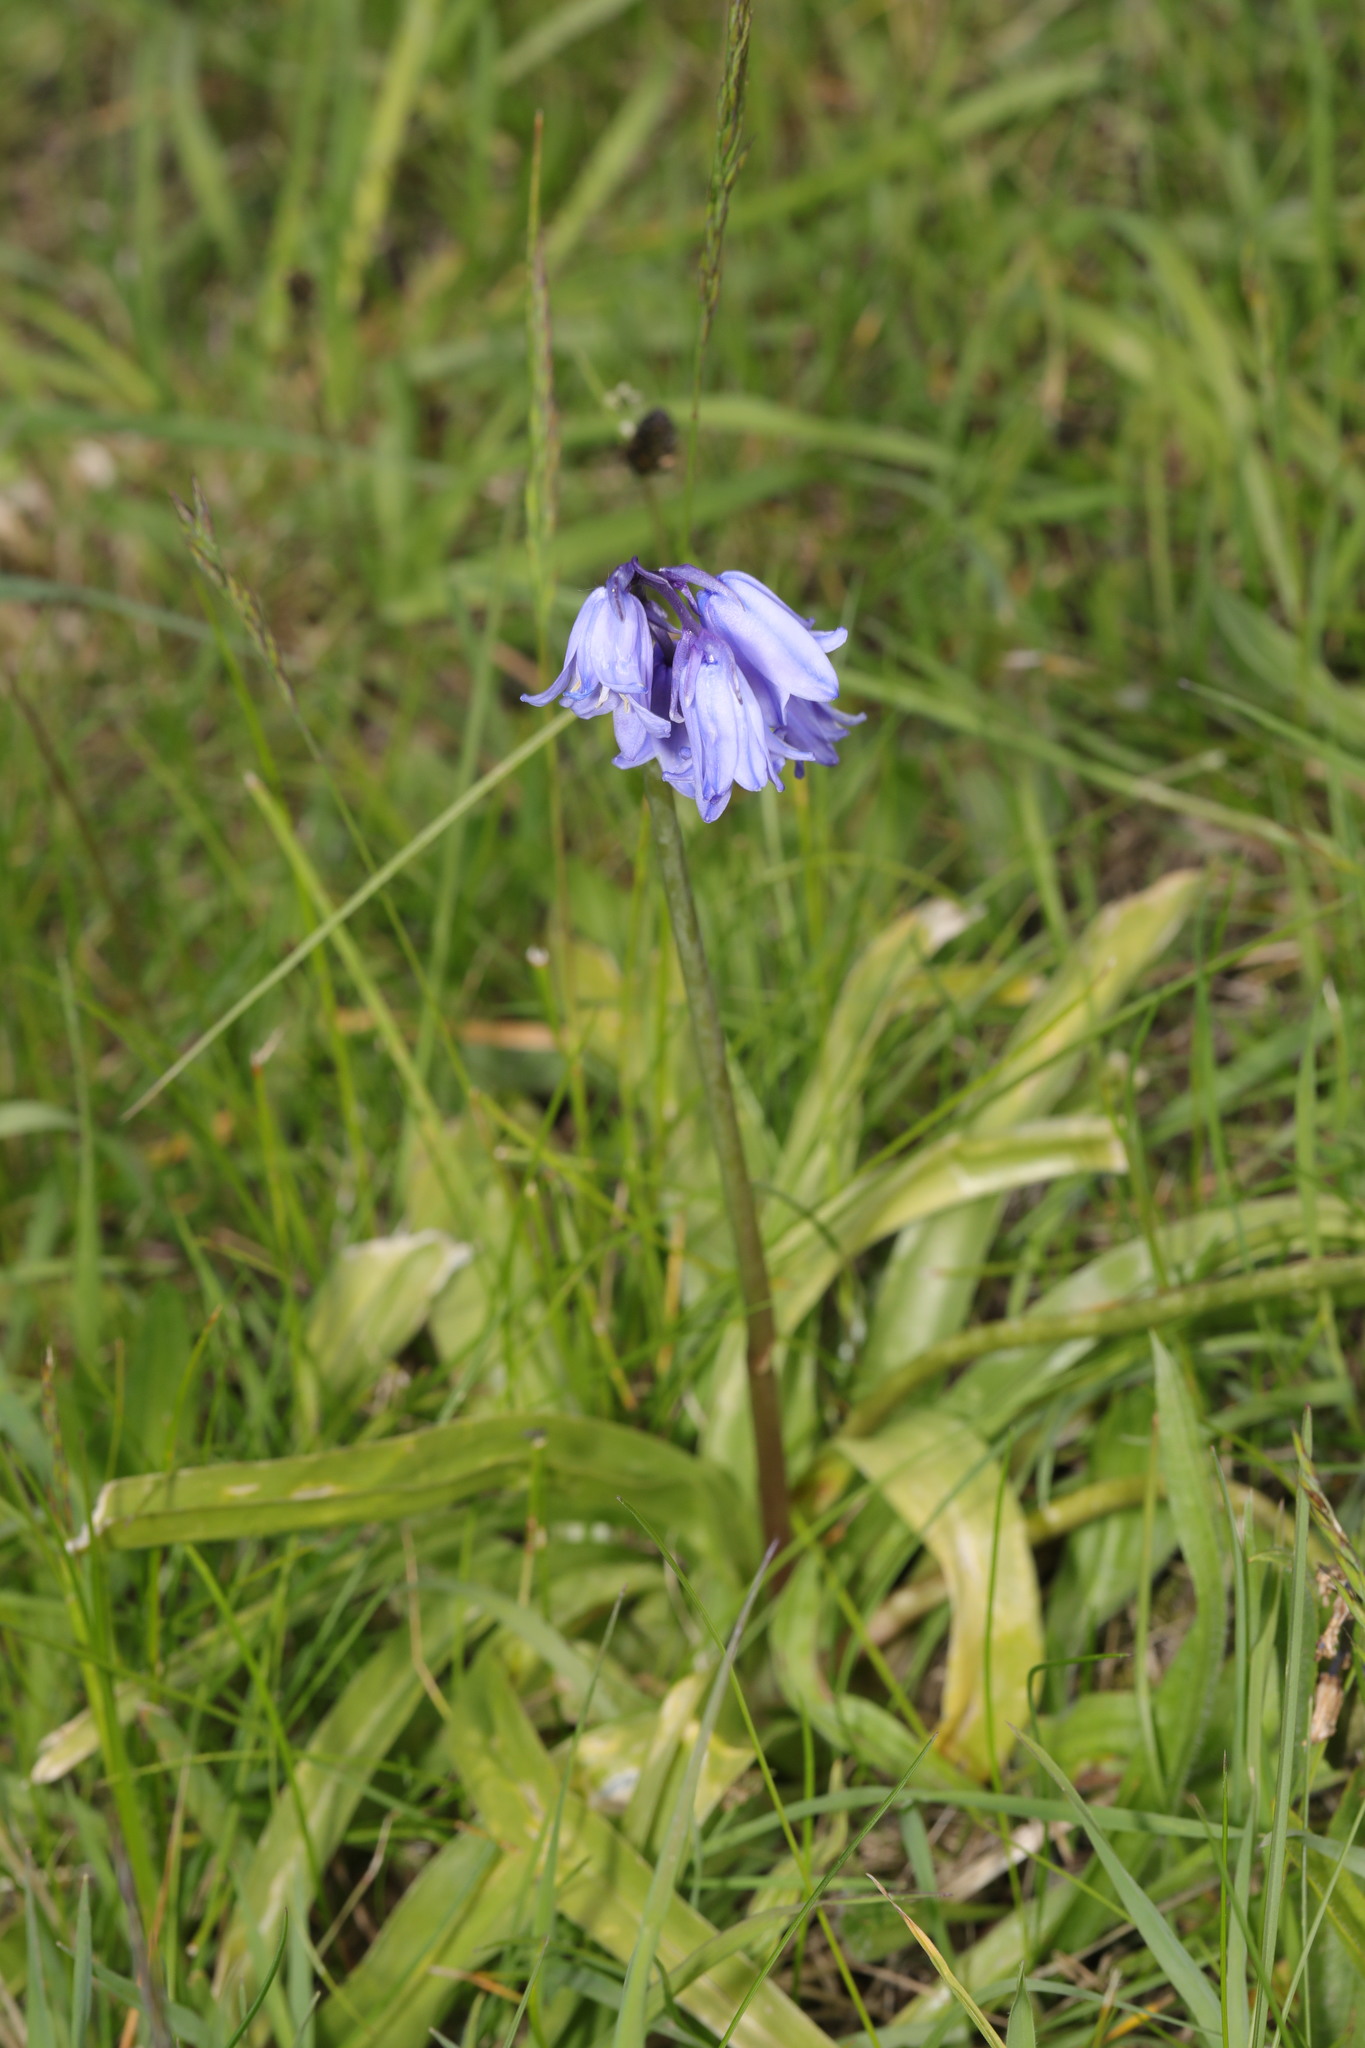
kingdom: Plantae
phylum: Tracheophyta
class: Liliopsida
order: Asparagales
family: Asparagaceae
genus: Hyacinthoides
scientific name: Hyacinthoides massartiana
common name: Hyacinthoides
